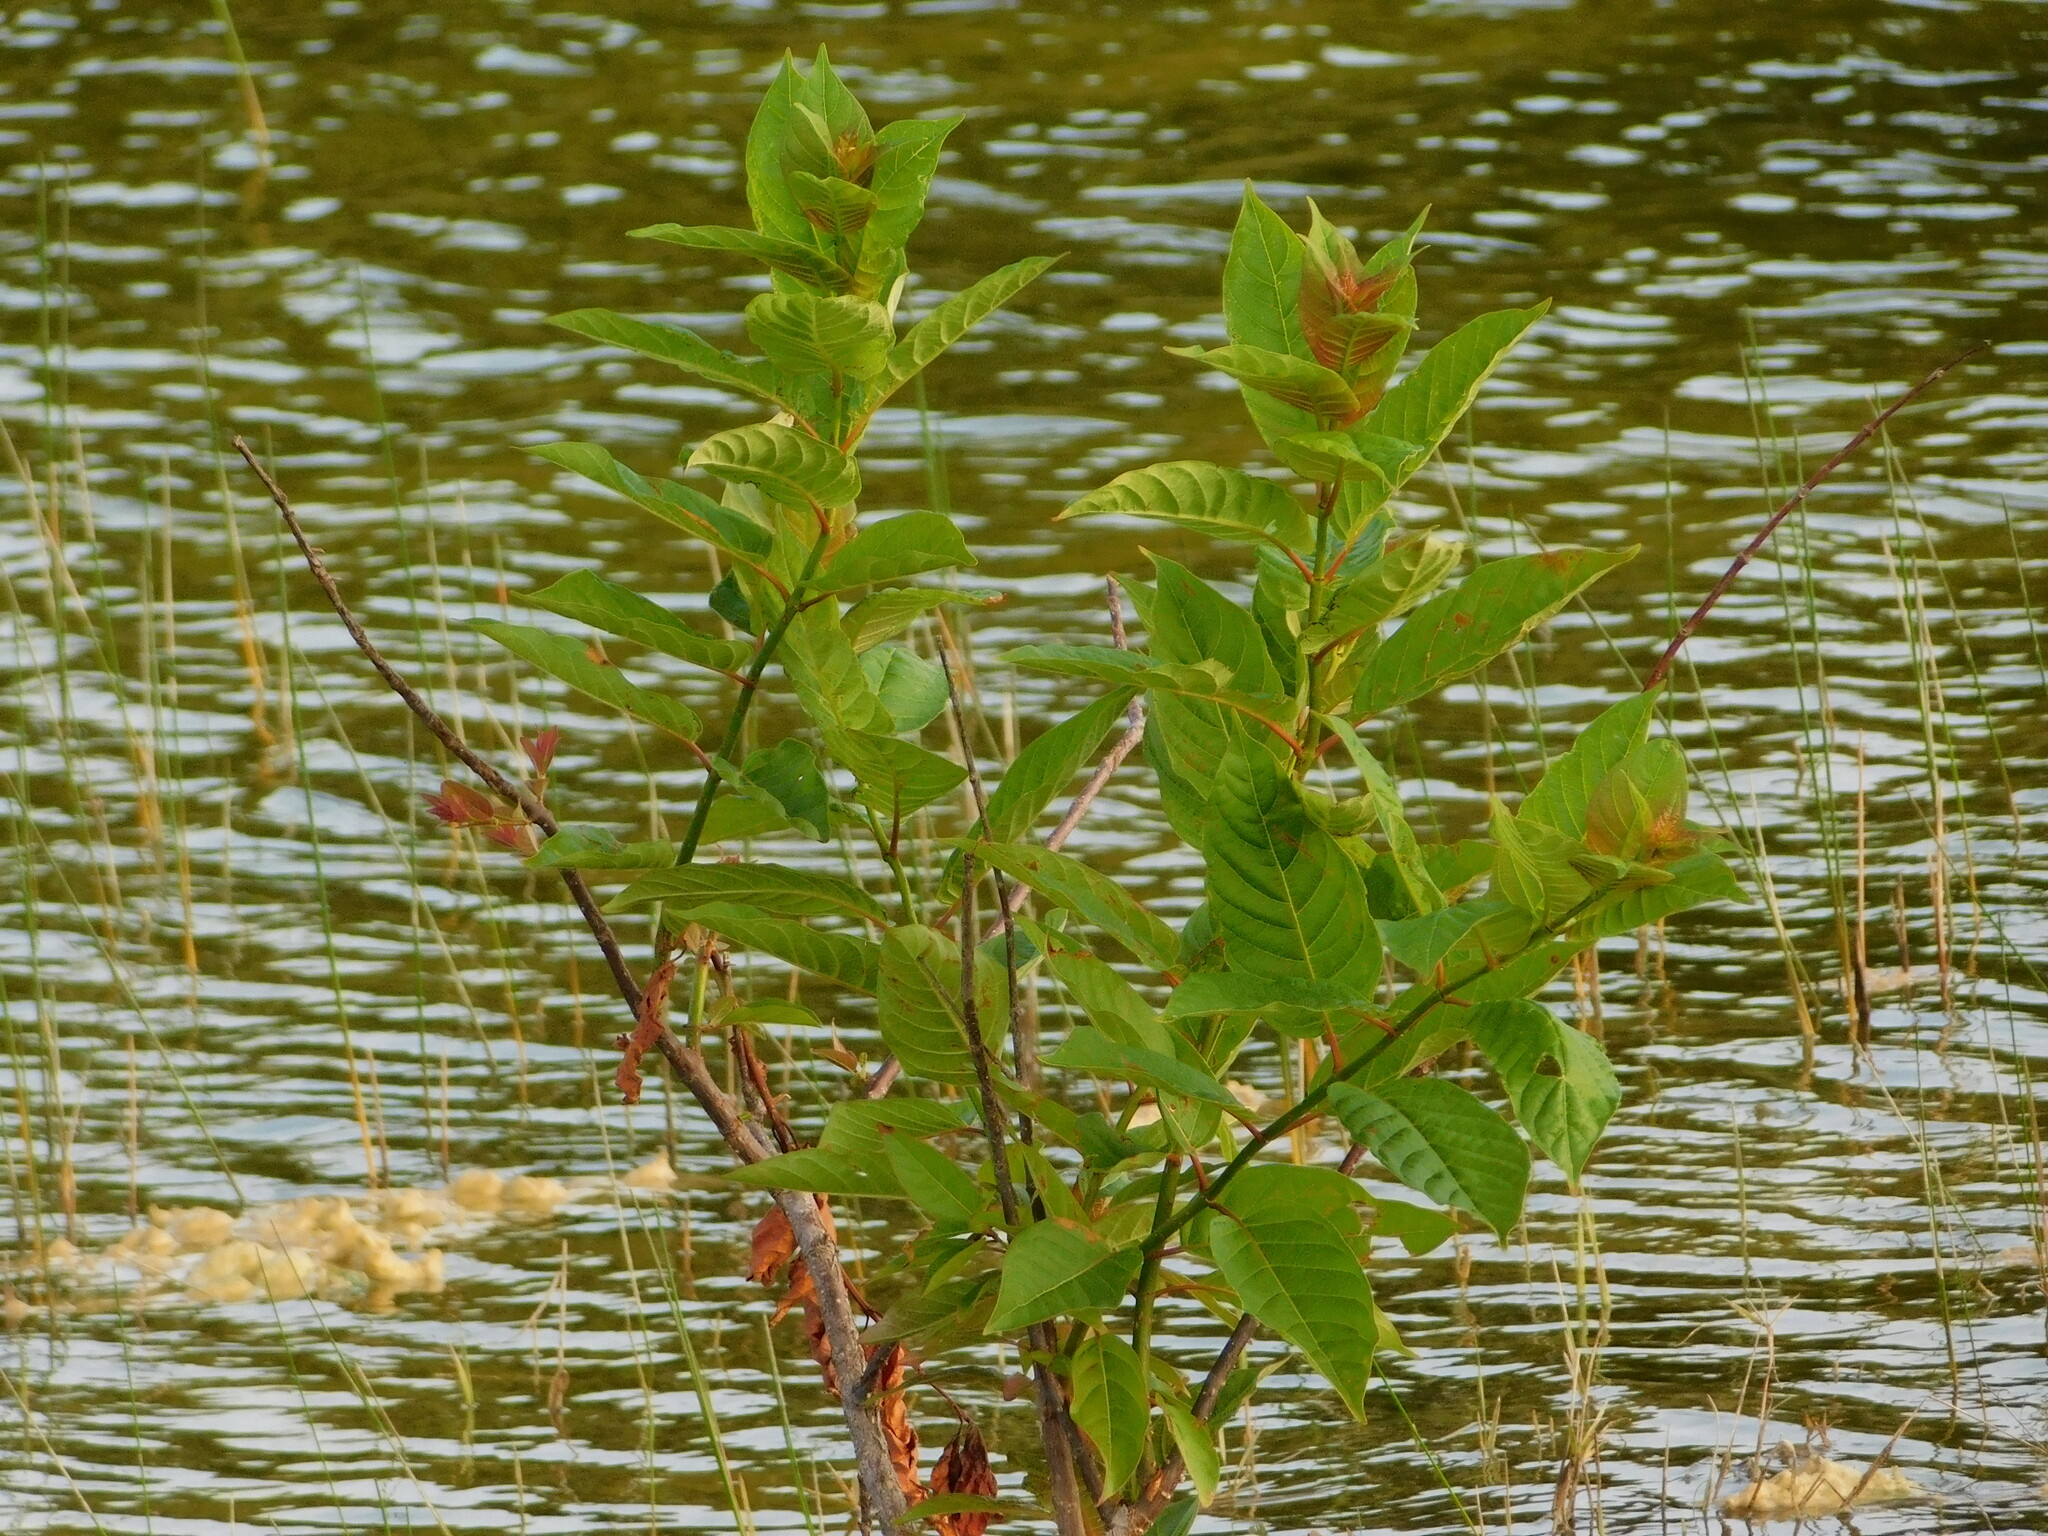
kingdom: Plantae
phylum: Tracheophyta
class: Magnoliopsida
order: Gentianales
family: Rubiaceae
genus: Cephalanthus
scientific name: Cephalanthus occidentalis
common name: Button-willow
